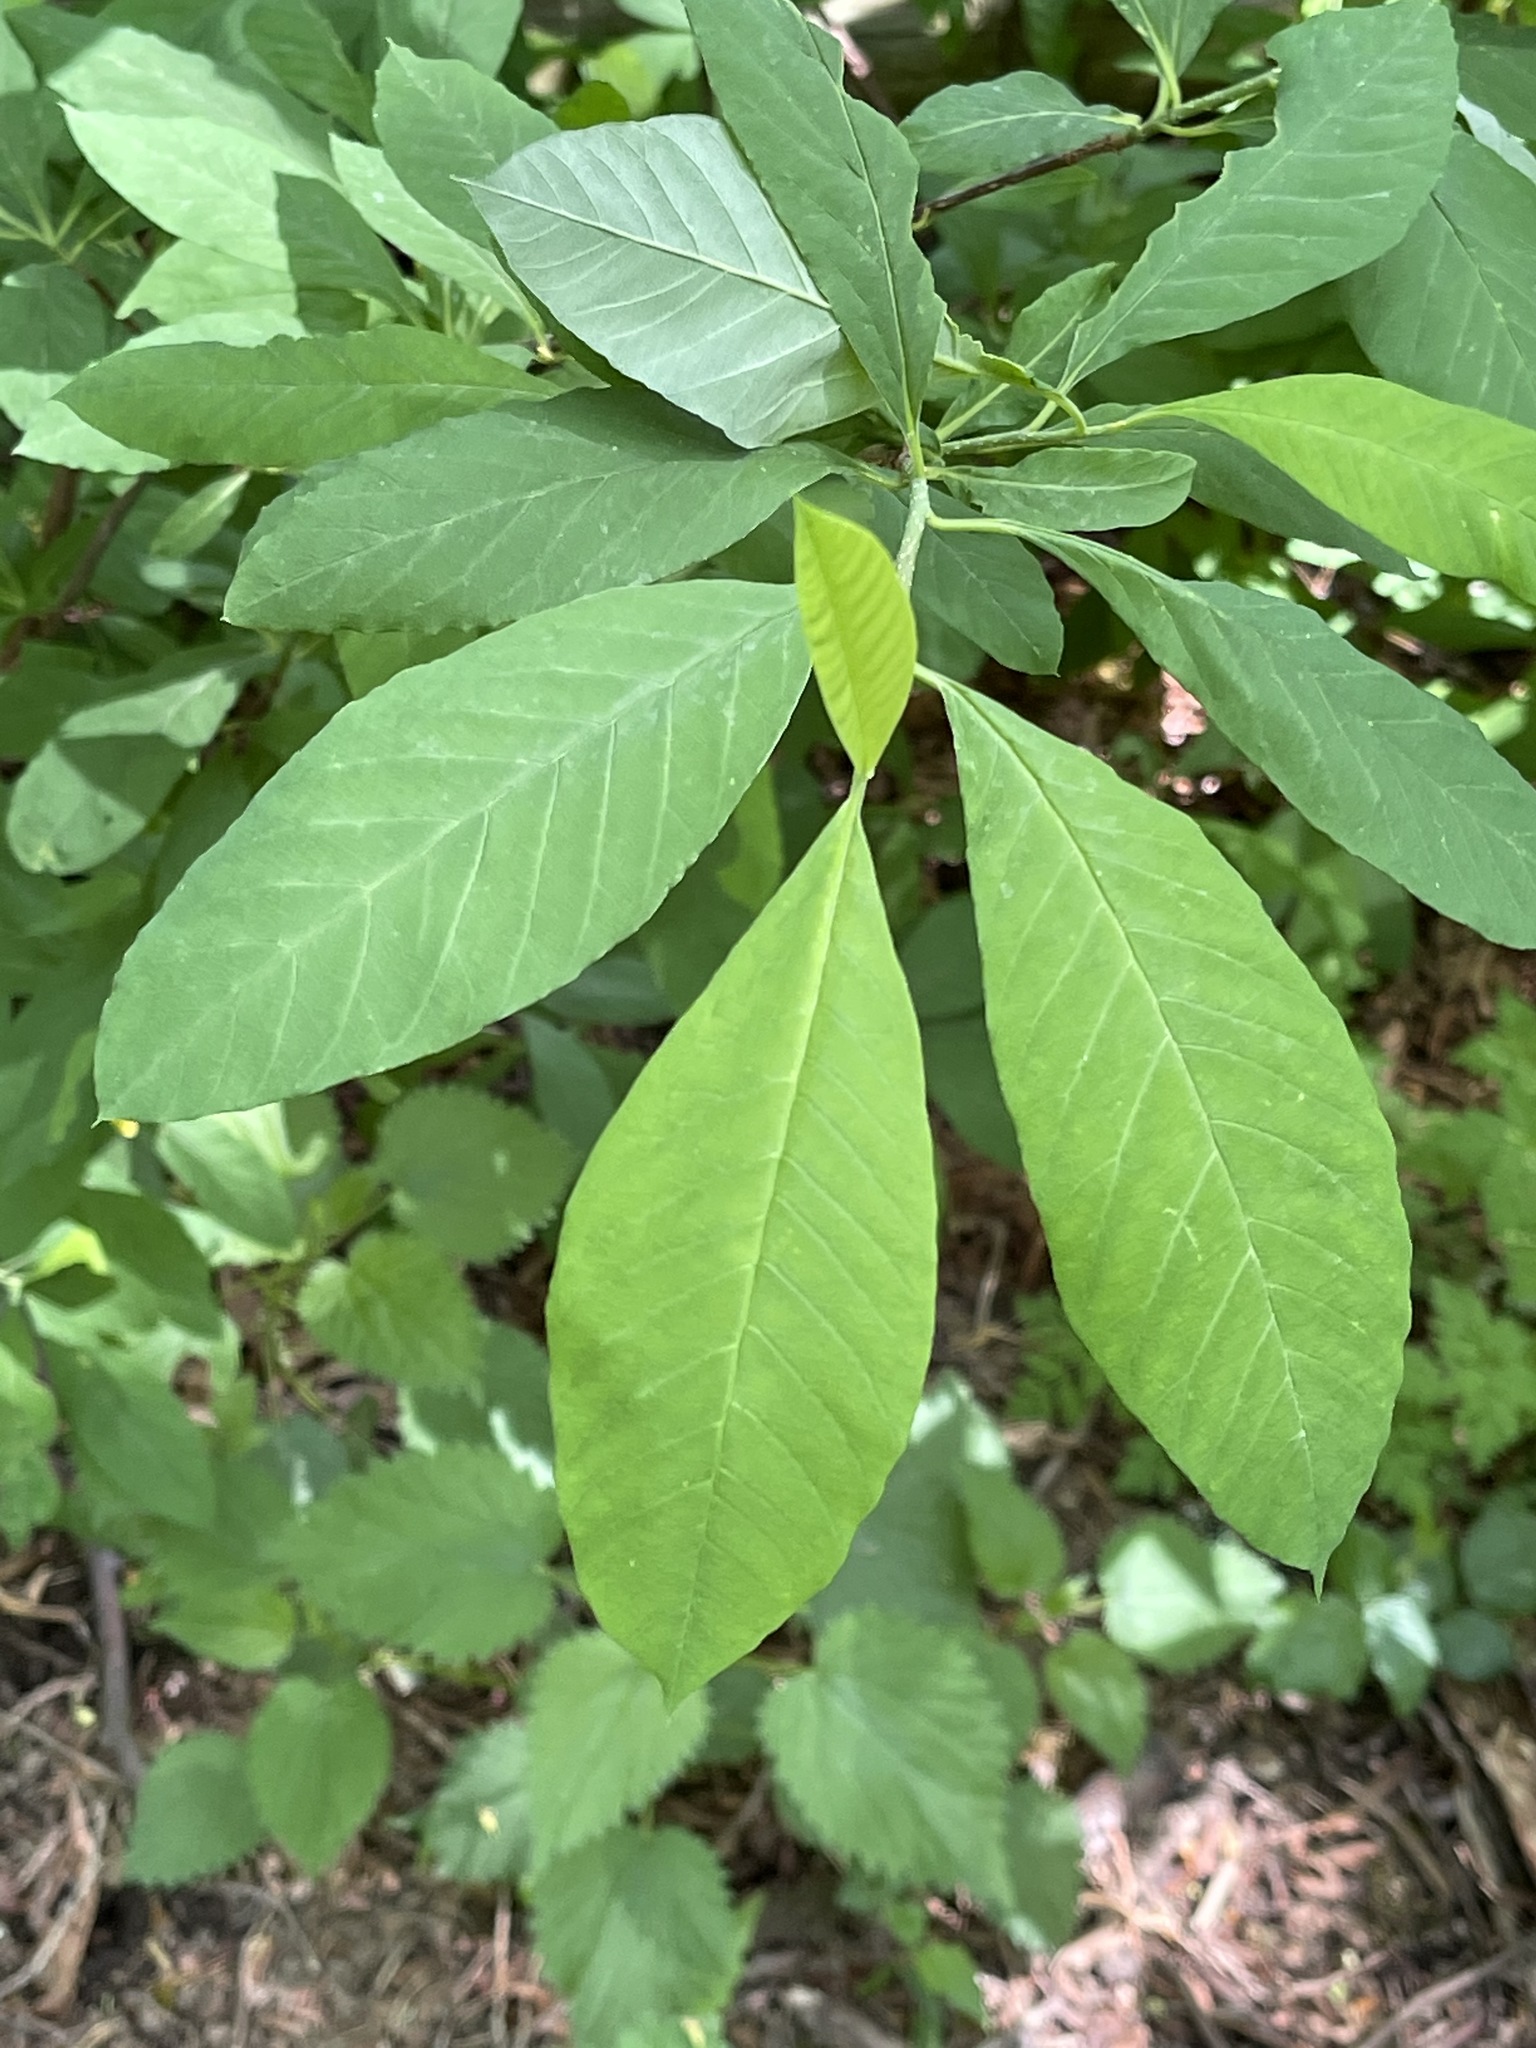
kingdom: Plantae
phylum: Tracheophyta
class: Magnoliopsida
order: Rosales
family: Rosaceae
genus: Oemleria
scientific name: Oemleria cerasiformis
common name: Osoberry
